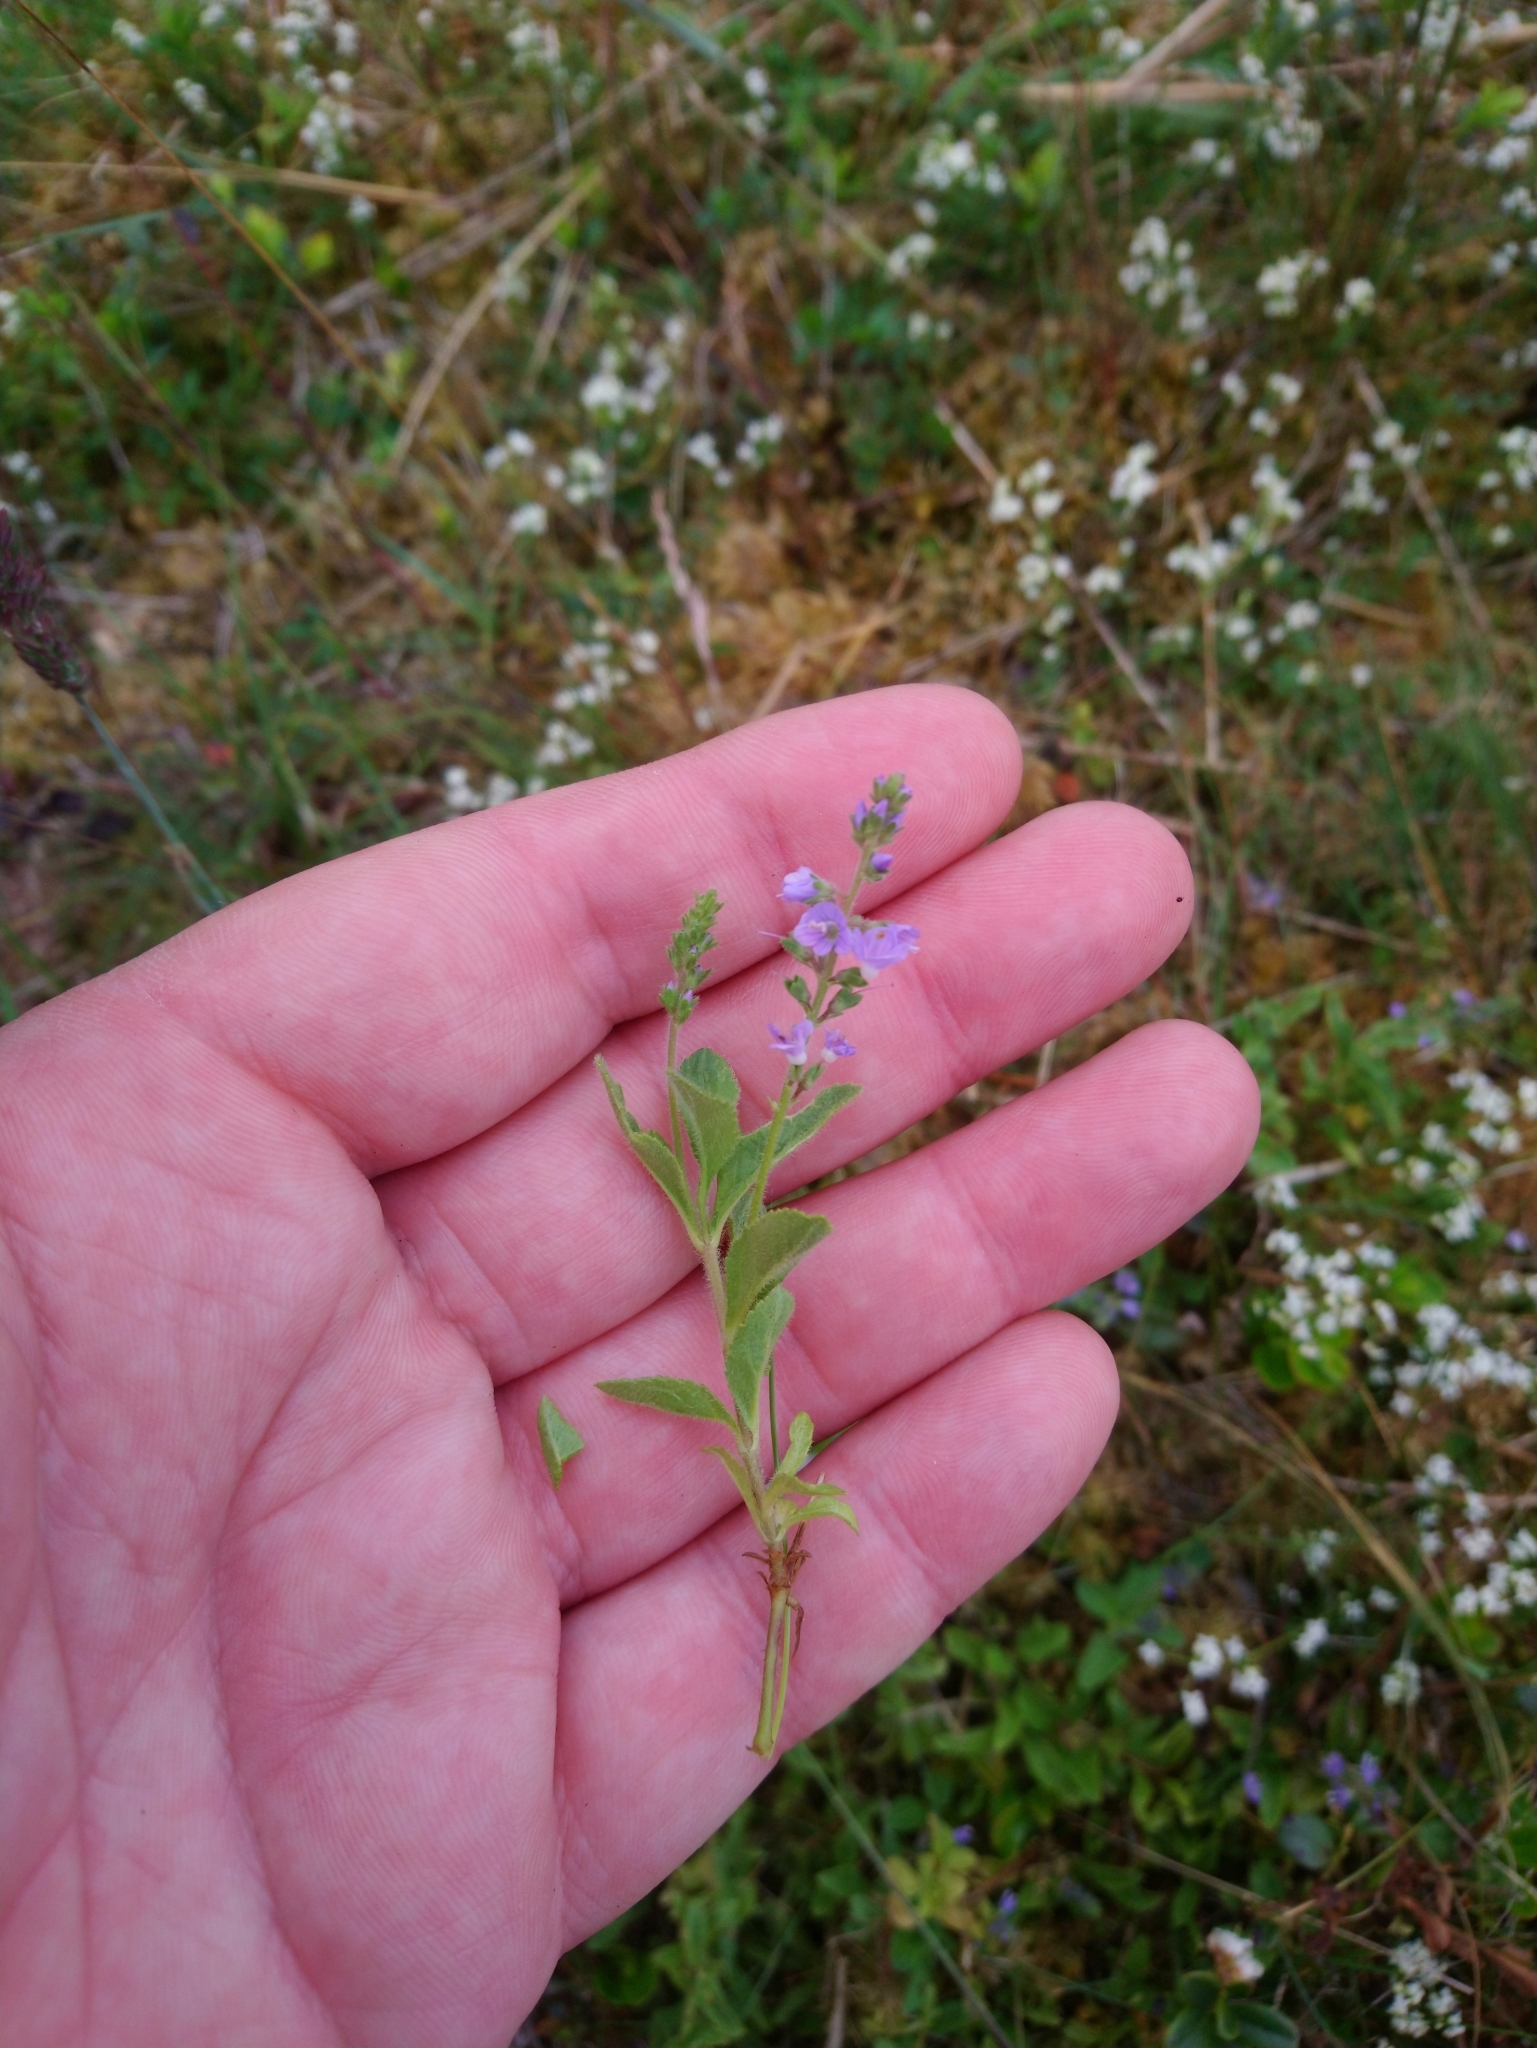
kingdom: Plantae
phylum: Tracheophyta
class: Magnoliopsida
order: Lamiales
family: Plantaginaceae
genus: Veronica
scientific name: Veronica officinalis
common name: Common speedwell
